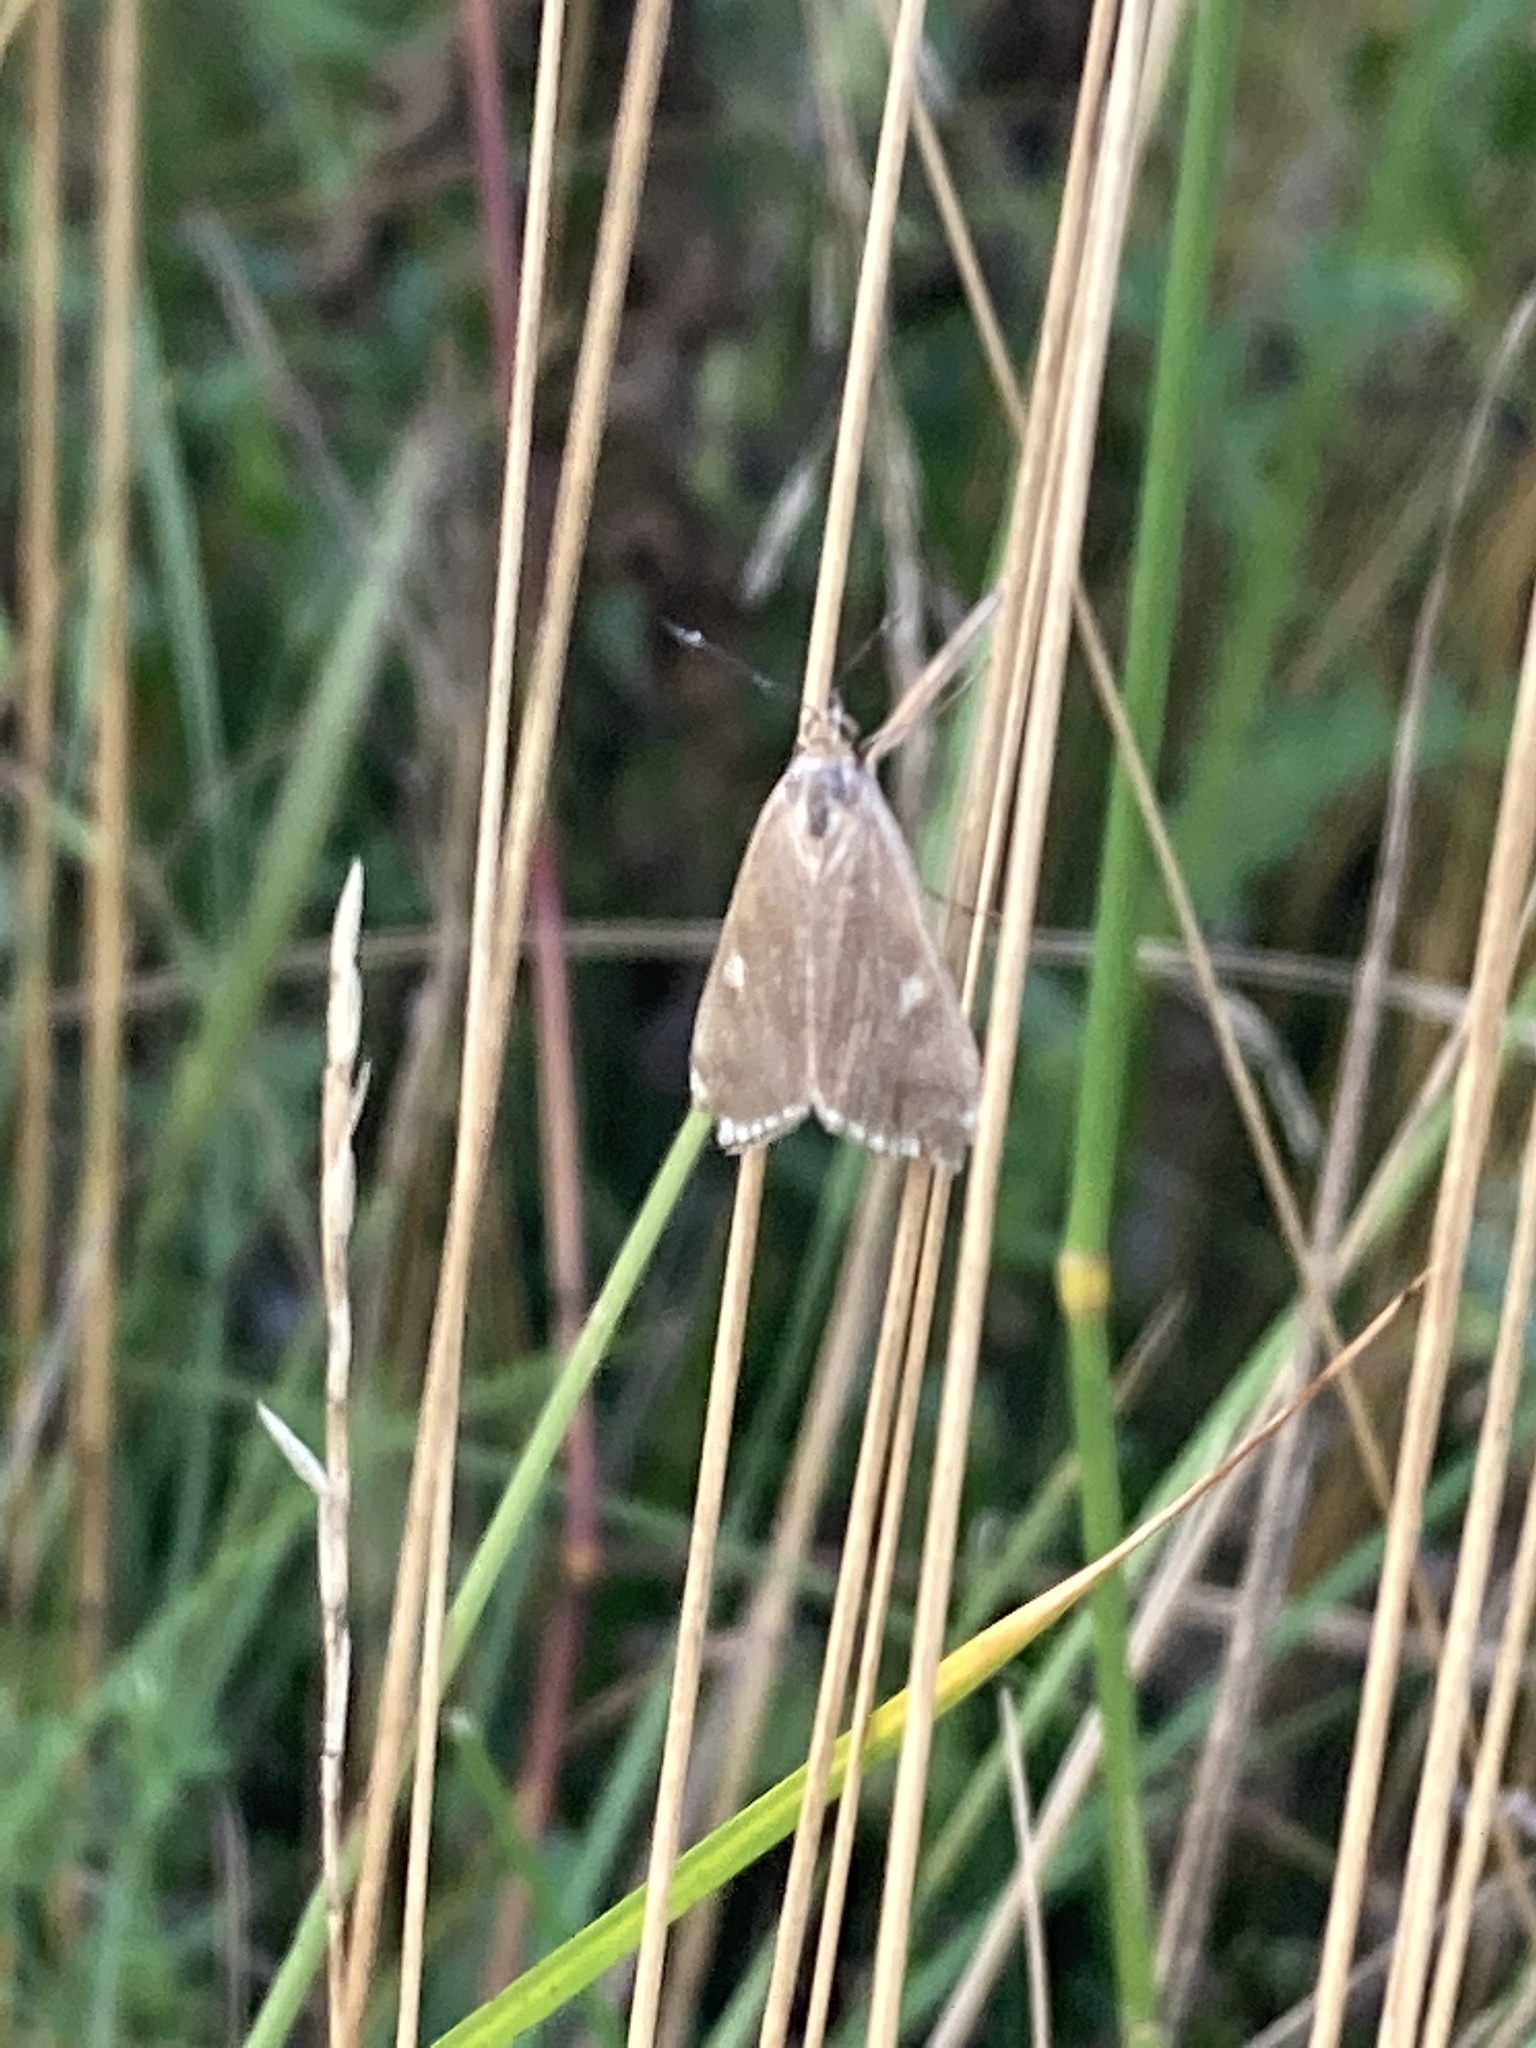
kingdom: Animalia
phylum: Arthropoda
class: Insecta
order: Lepidoptera
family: Crambidae
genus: Loxostege
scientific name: Loxostege sticticalis
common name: Crambid moth
